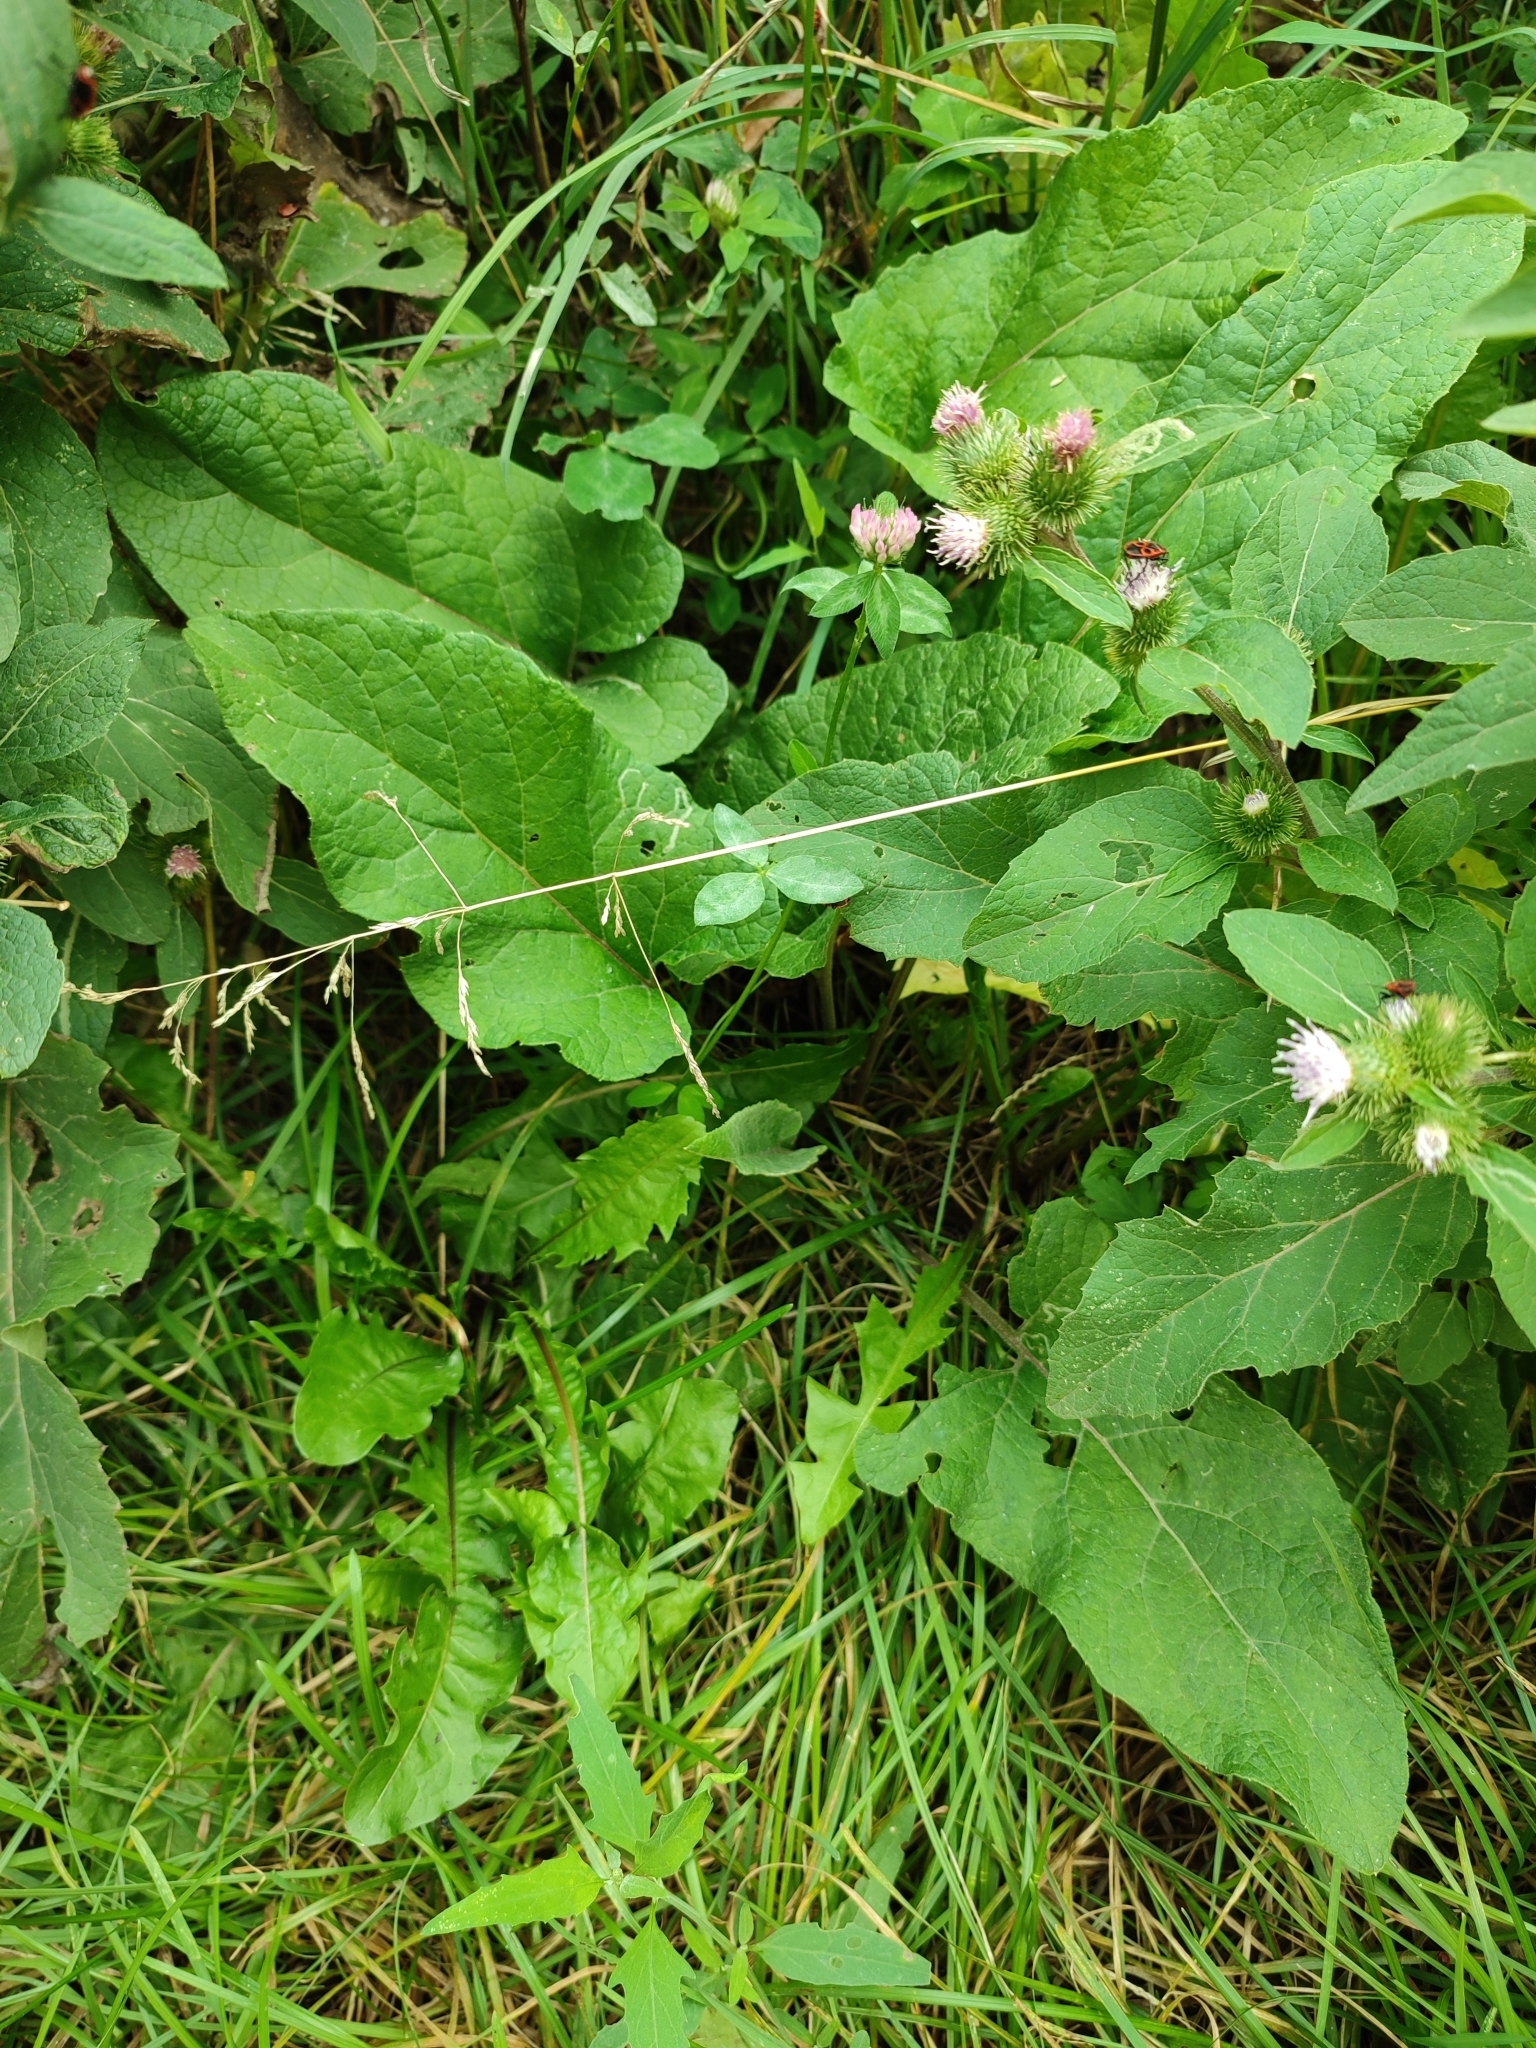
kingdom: Plantae
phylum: Tracheophyta
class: Magnoliopsida
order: Asterales
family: Asteraceae
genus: Arctium
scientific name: Arctium minus
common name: Lesser burdock
